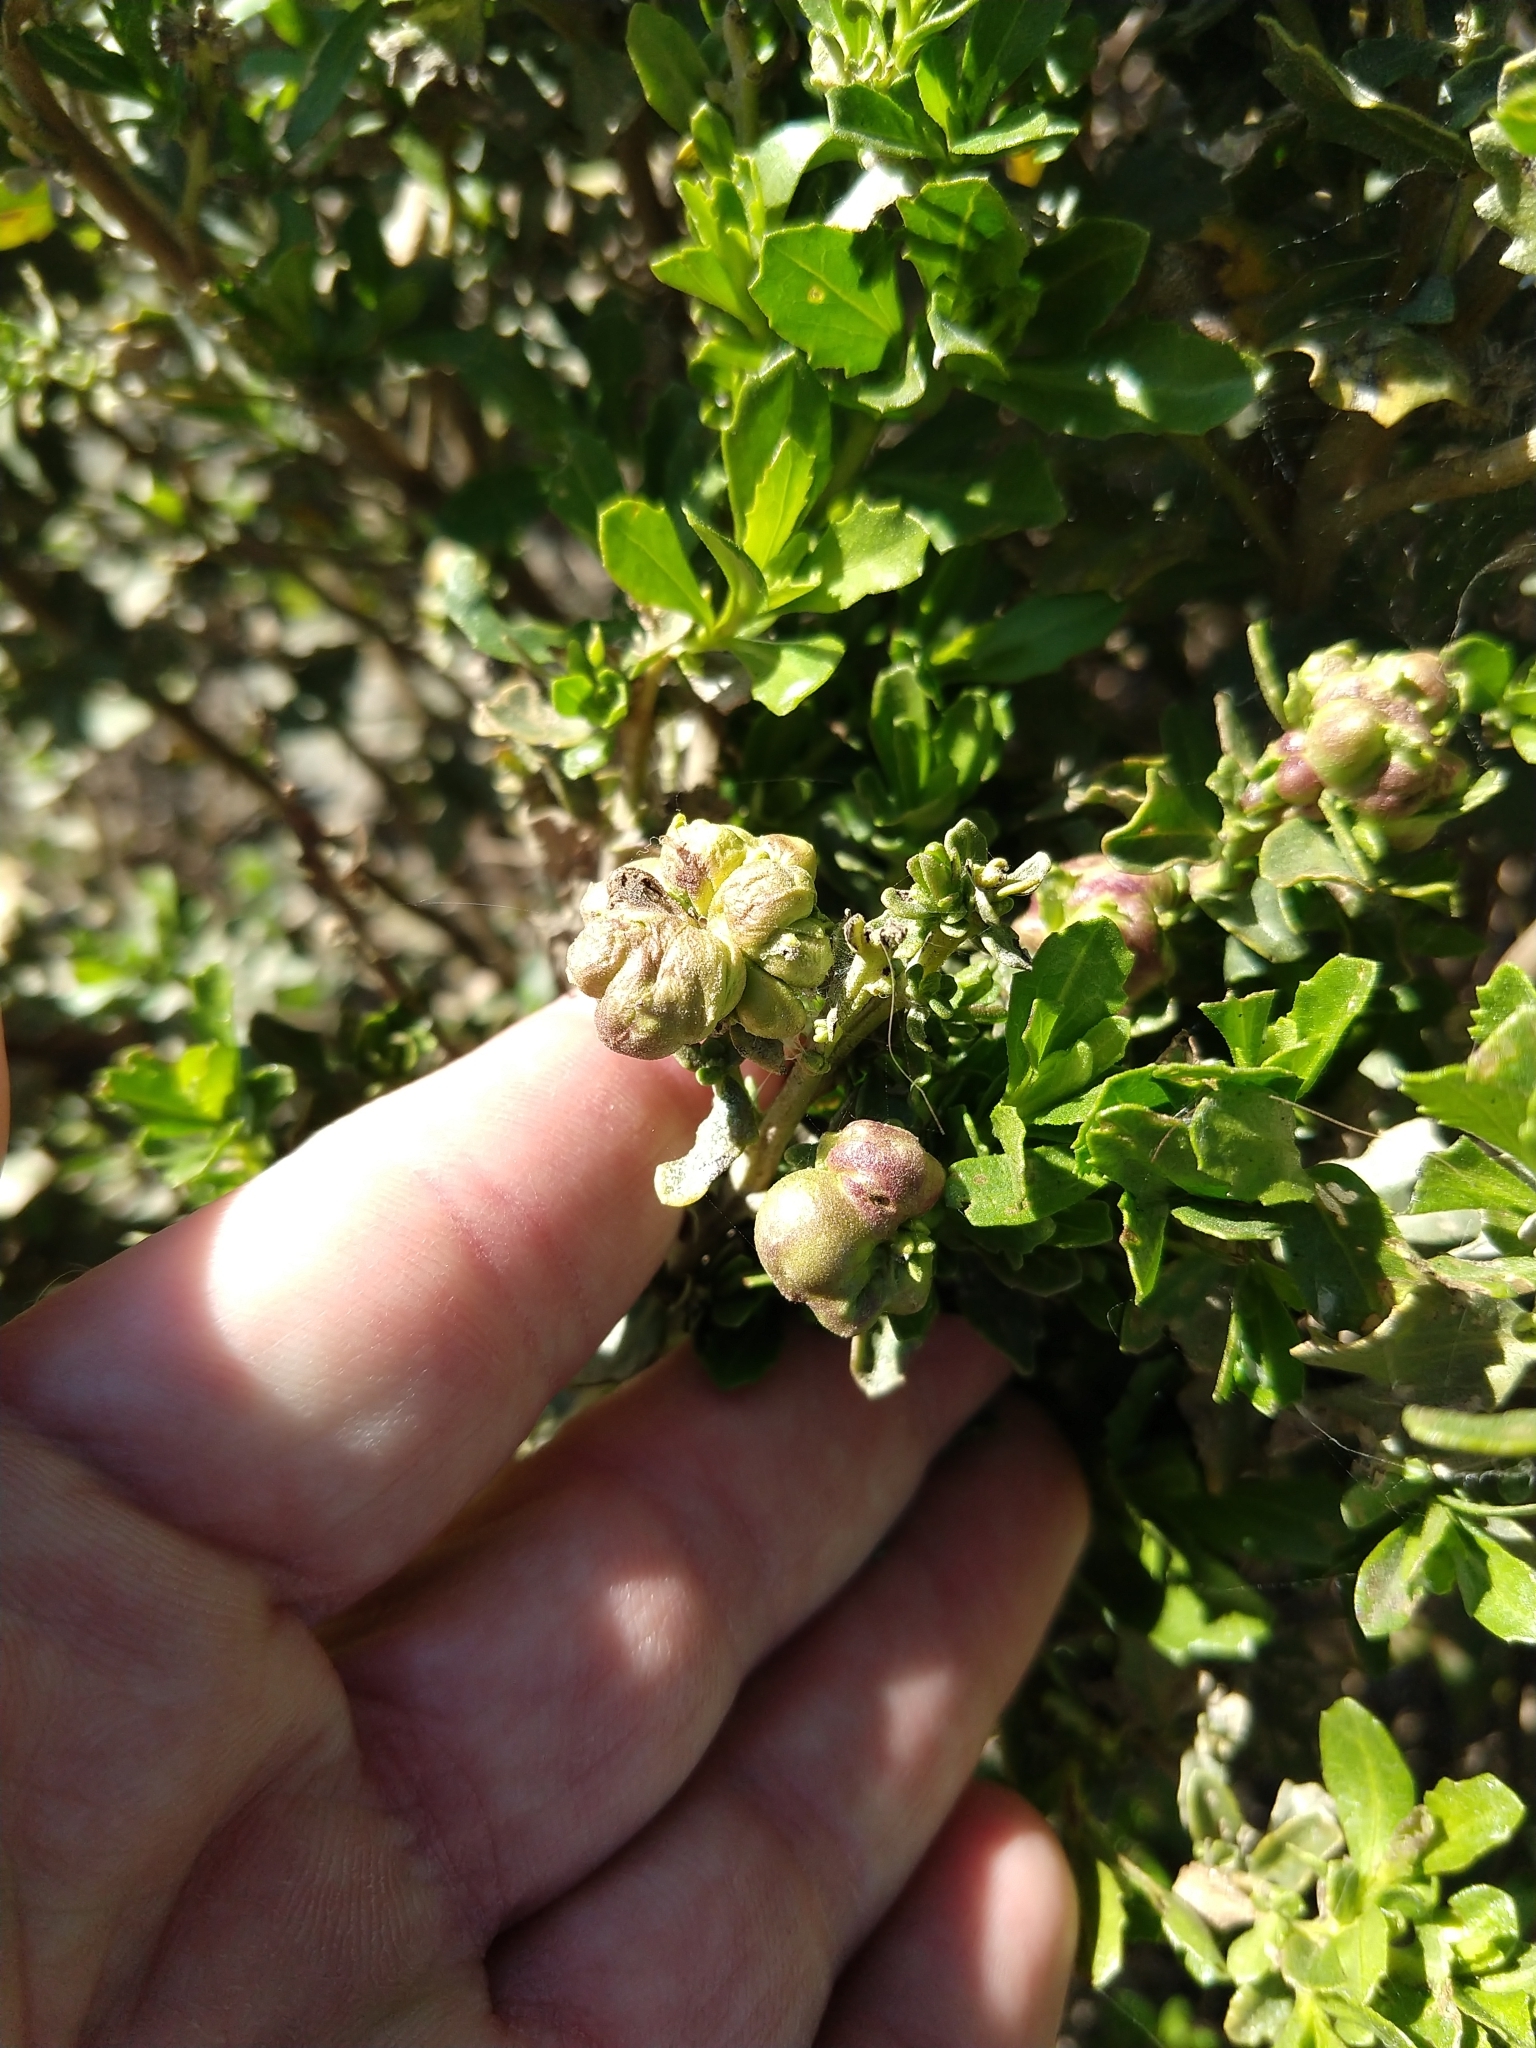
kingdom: Animalia
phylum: Arthropoda
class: Insecta
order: Diptera
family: Cecidomyiidae
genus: Rhopalomyia
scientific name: Rhopalomyia californica
